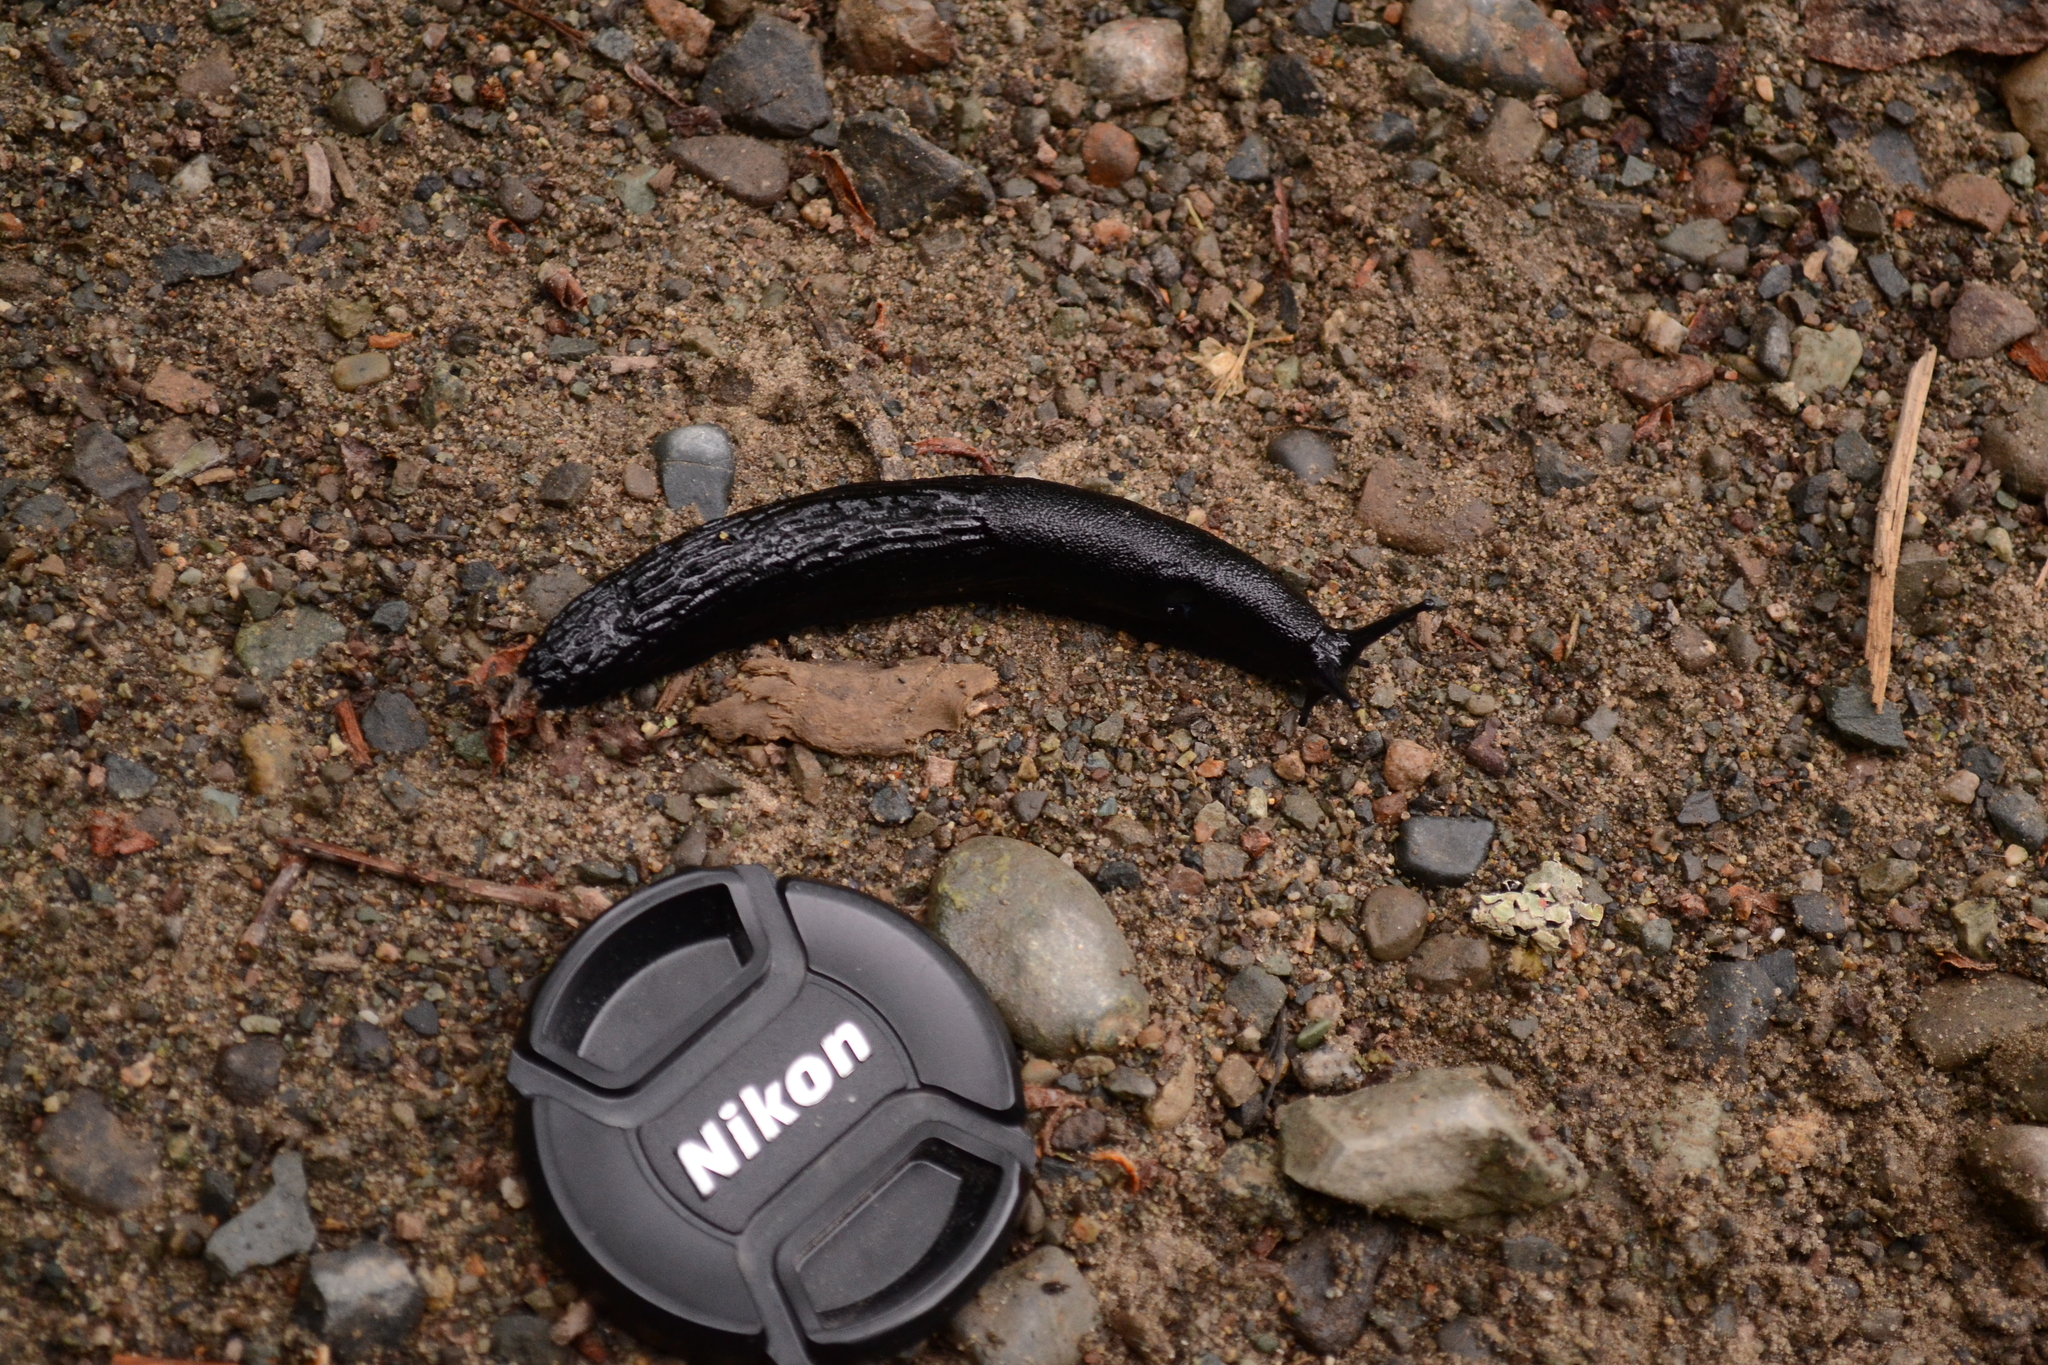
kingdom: Animalia
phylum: Mollusca
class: Gastropoda
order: Stylommatophora
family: Arionidae
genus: Arion
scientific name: Arion
